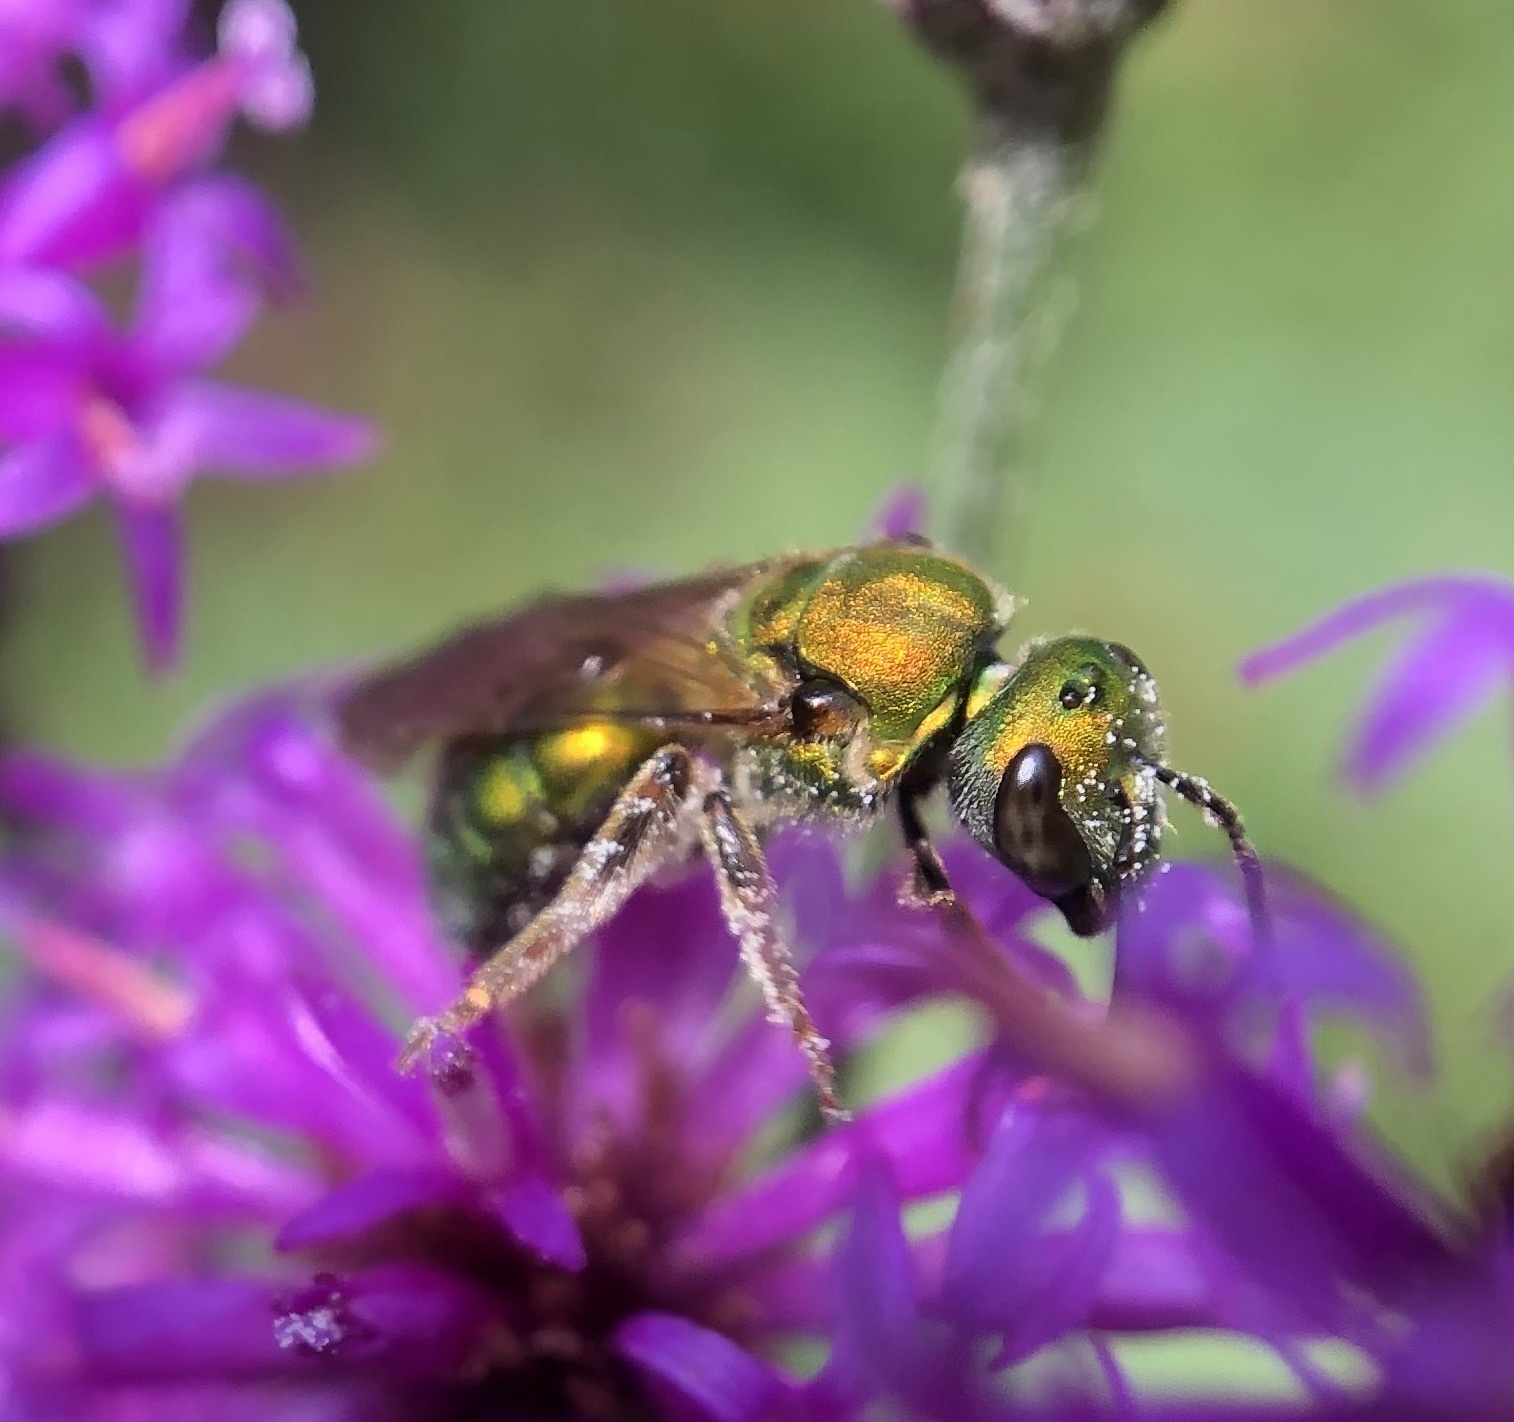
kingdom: Animalia
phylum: Arthropoda
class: Insecta
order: Hymenoptera
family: Halictidae
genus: Augochlora
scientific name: Augochlora pura
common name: Pure green sweat bee
